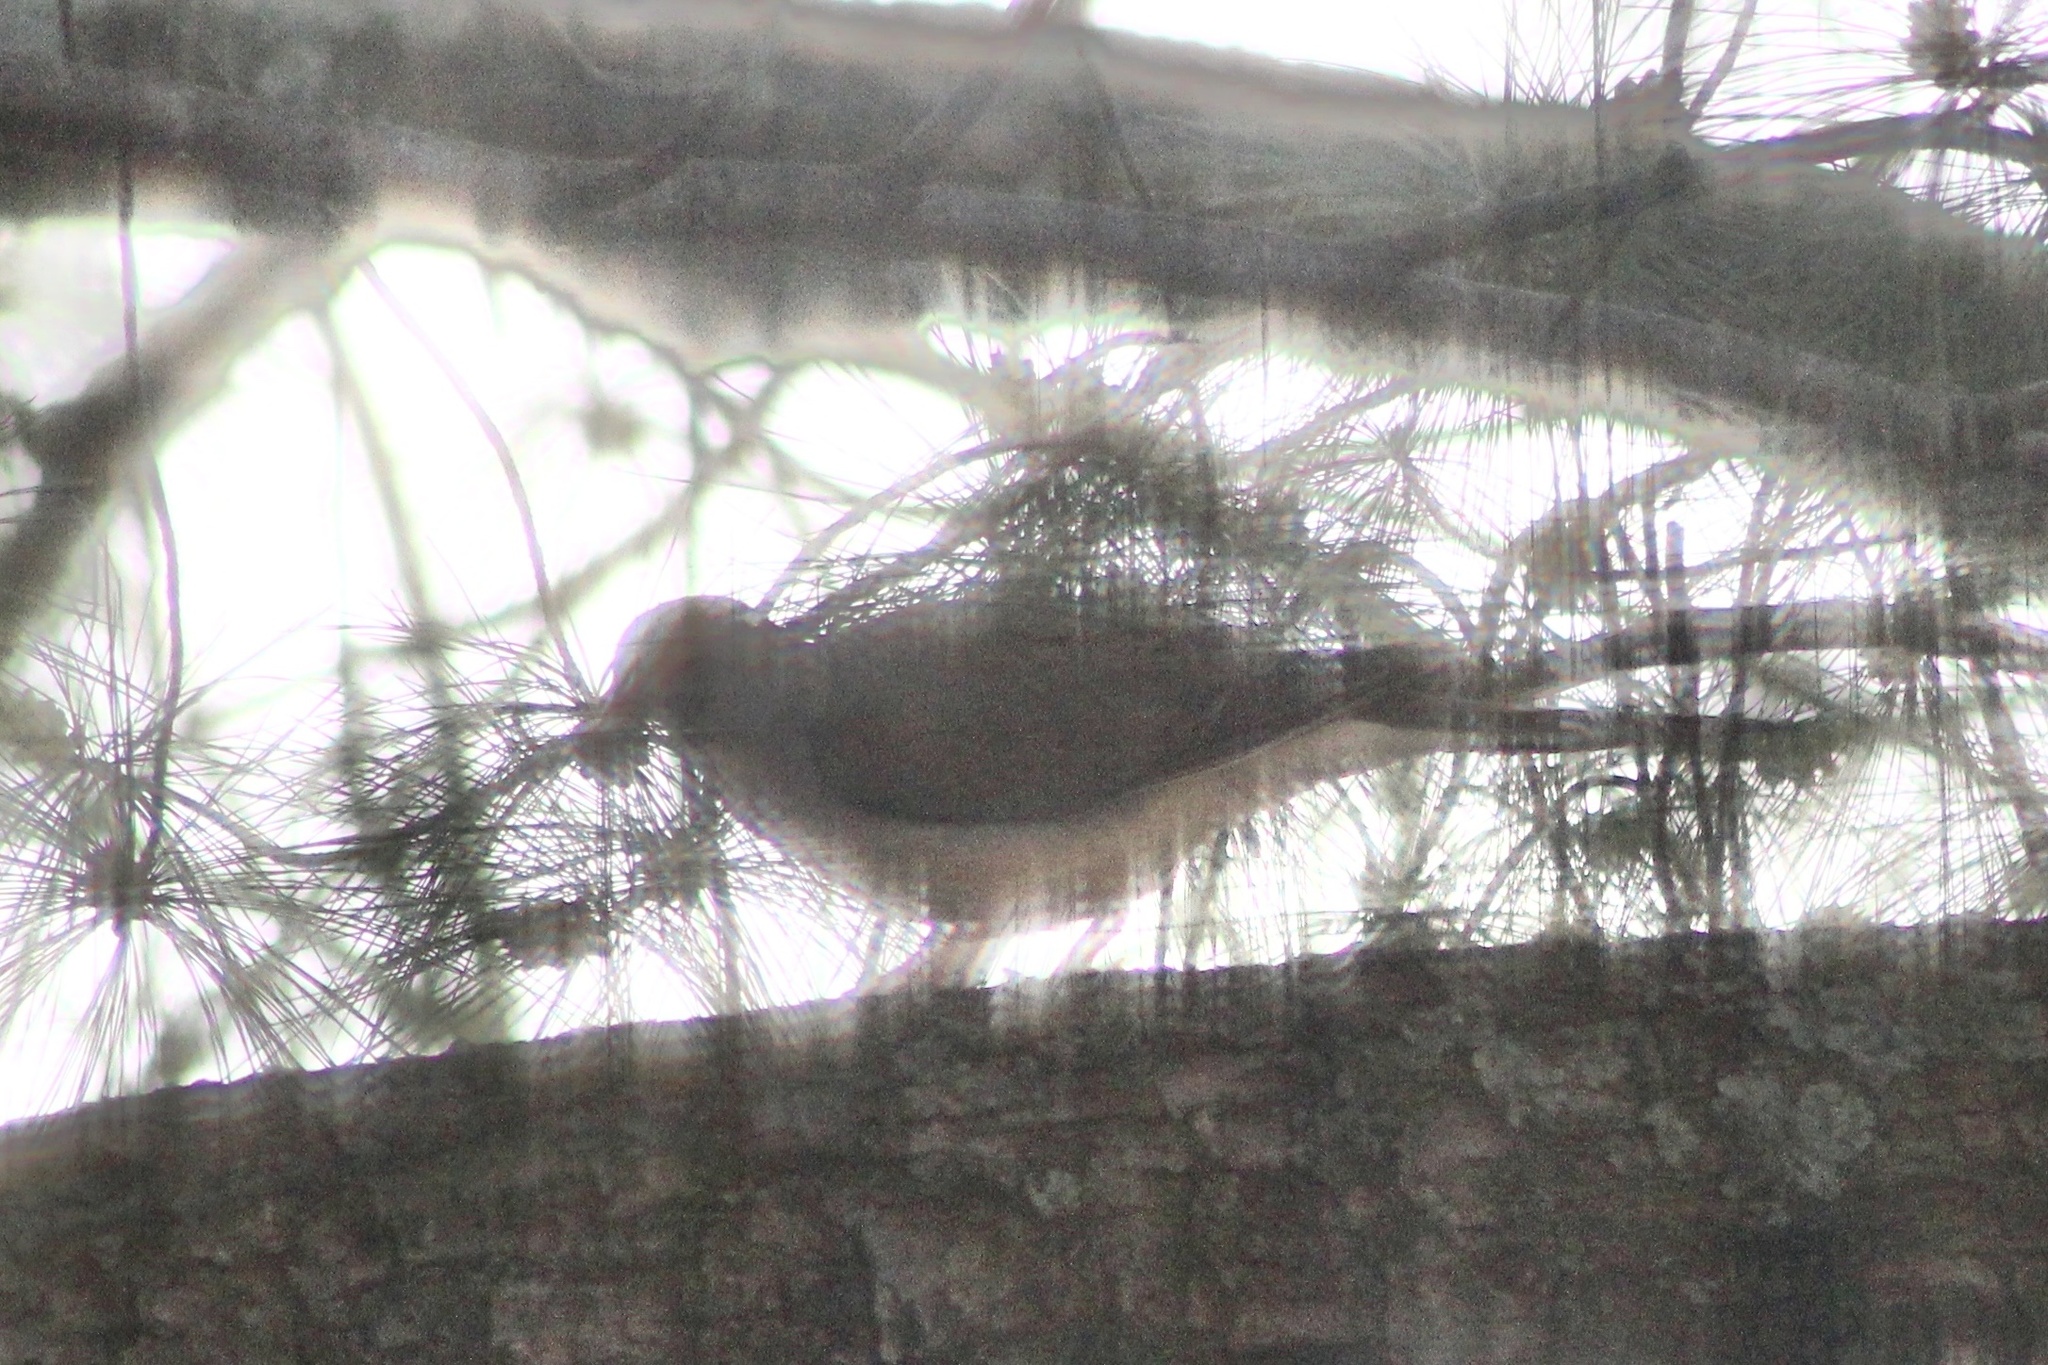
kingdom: Animalia
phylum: Chordata
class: Aves
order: Columbiformes
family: Columbidae
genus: Zenaida
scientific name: Zenaida macroura
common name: Mourning dove
